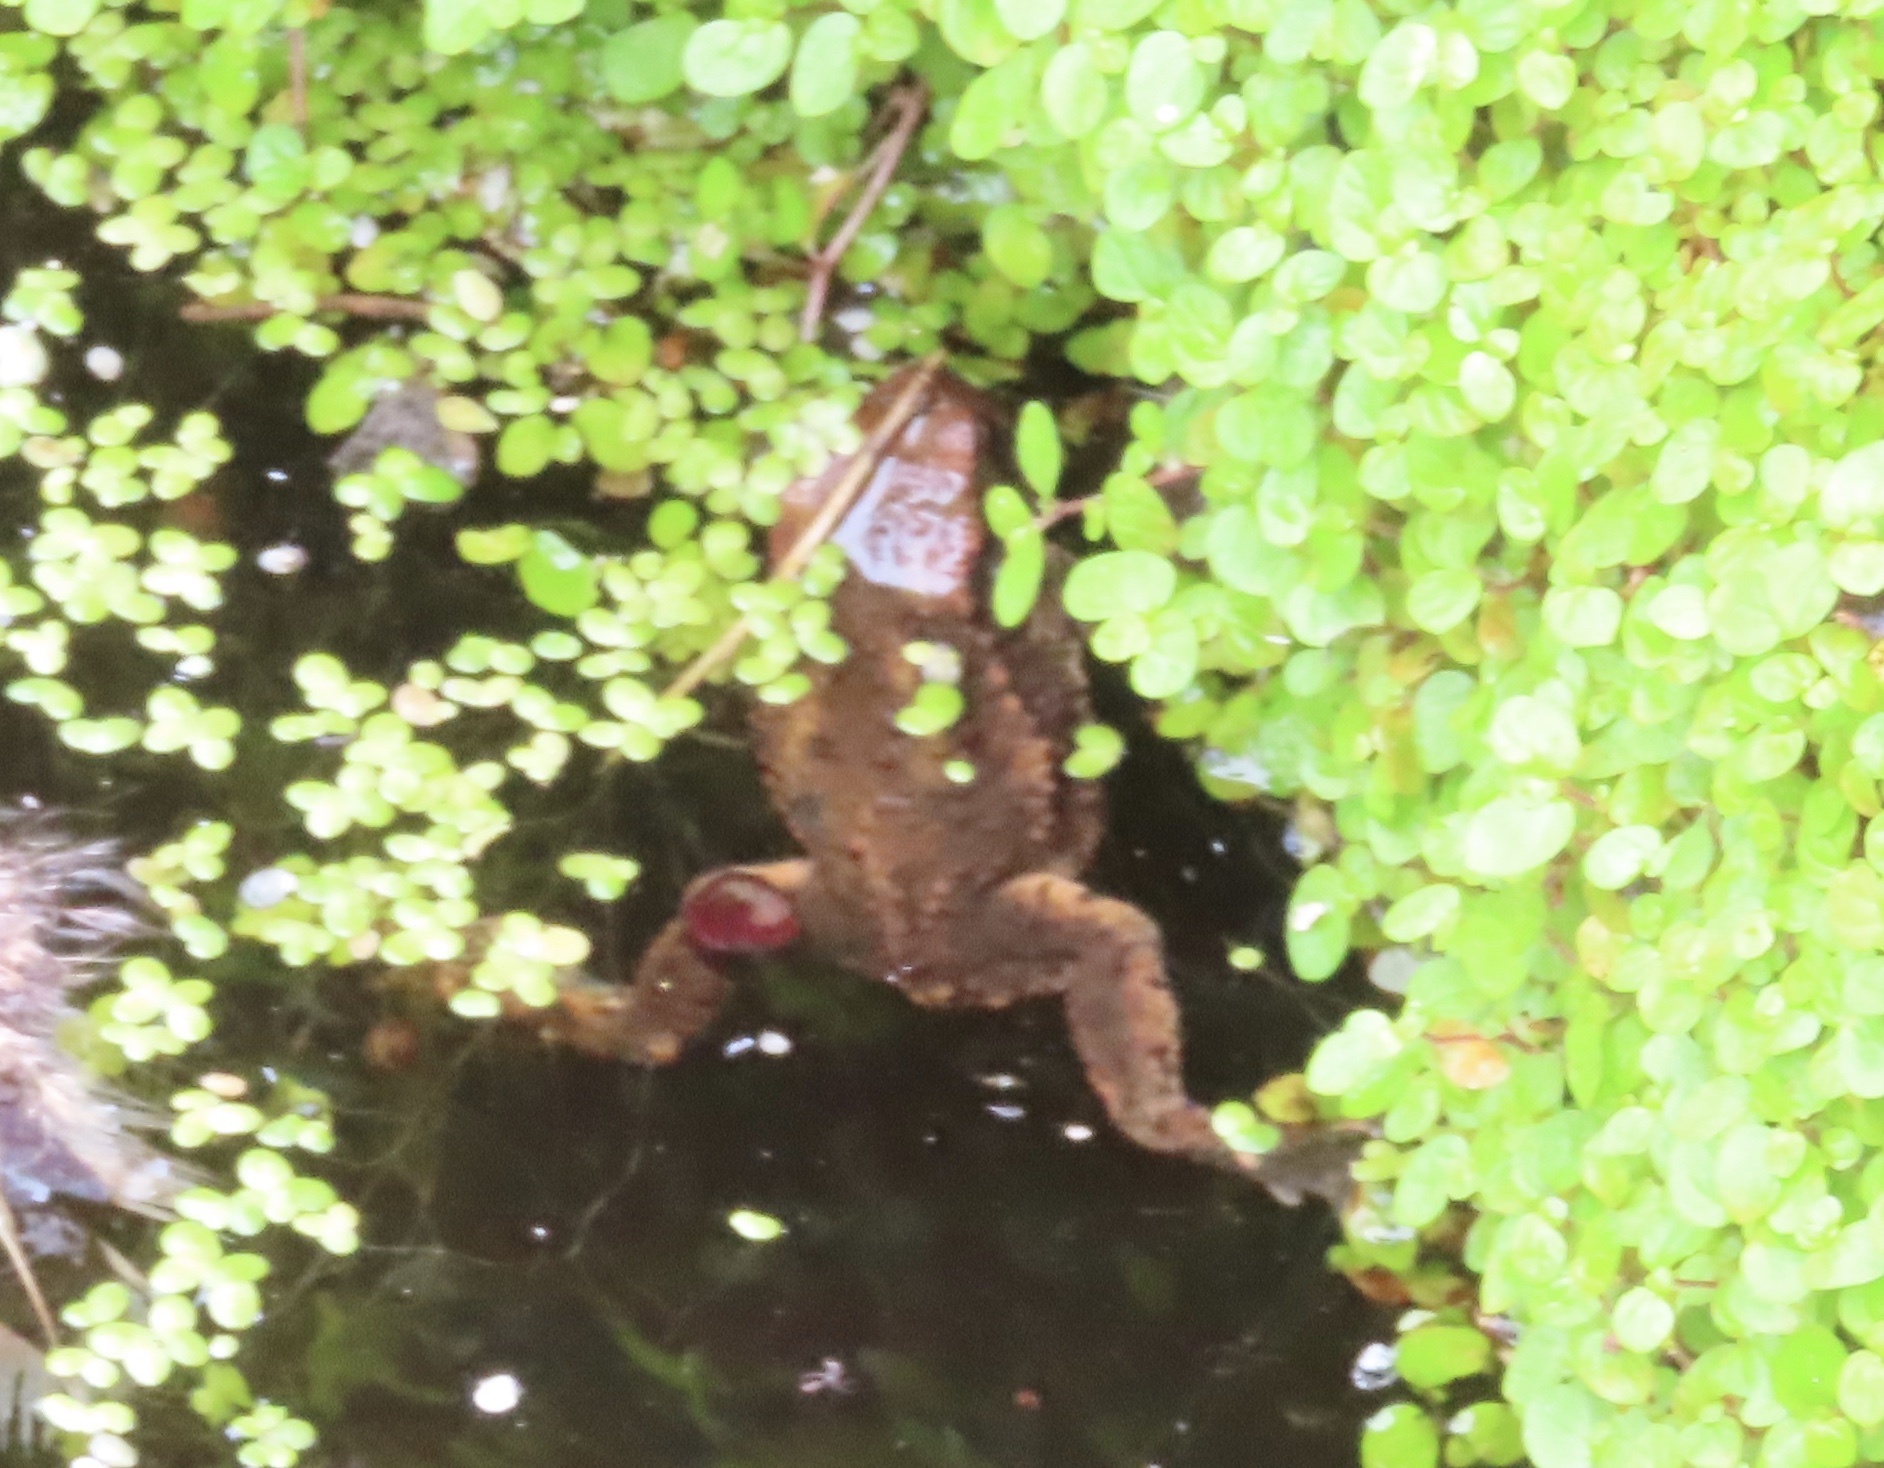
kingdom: Animalia
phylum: Chordata
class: Amphibia
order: Anura
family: Bufonidae
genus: Bufo
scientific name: Bufo bufo
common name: Common toad
